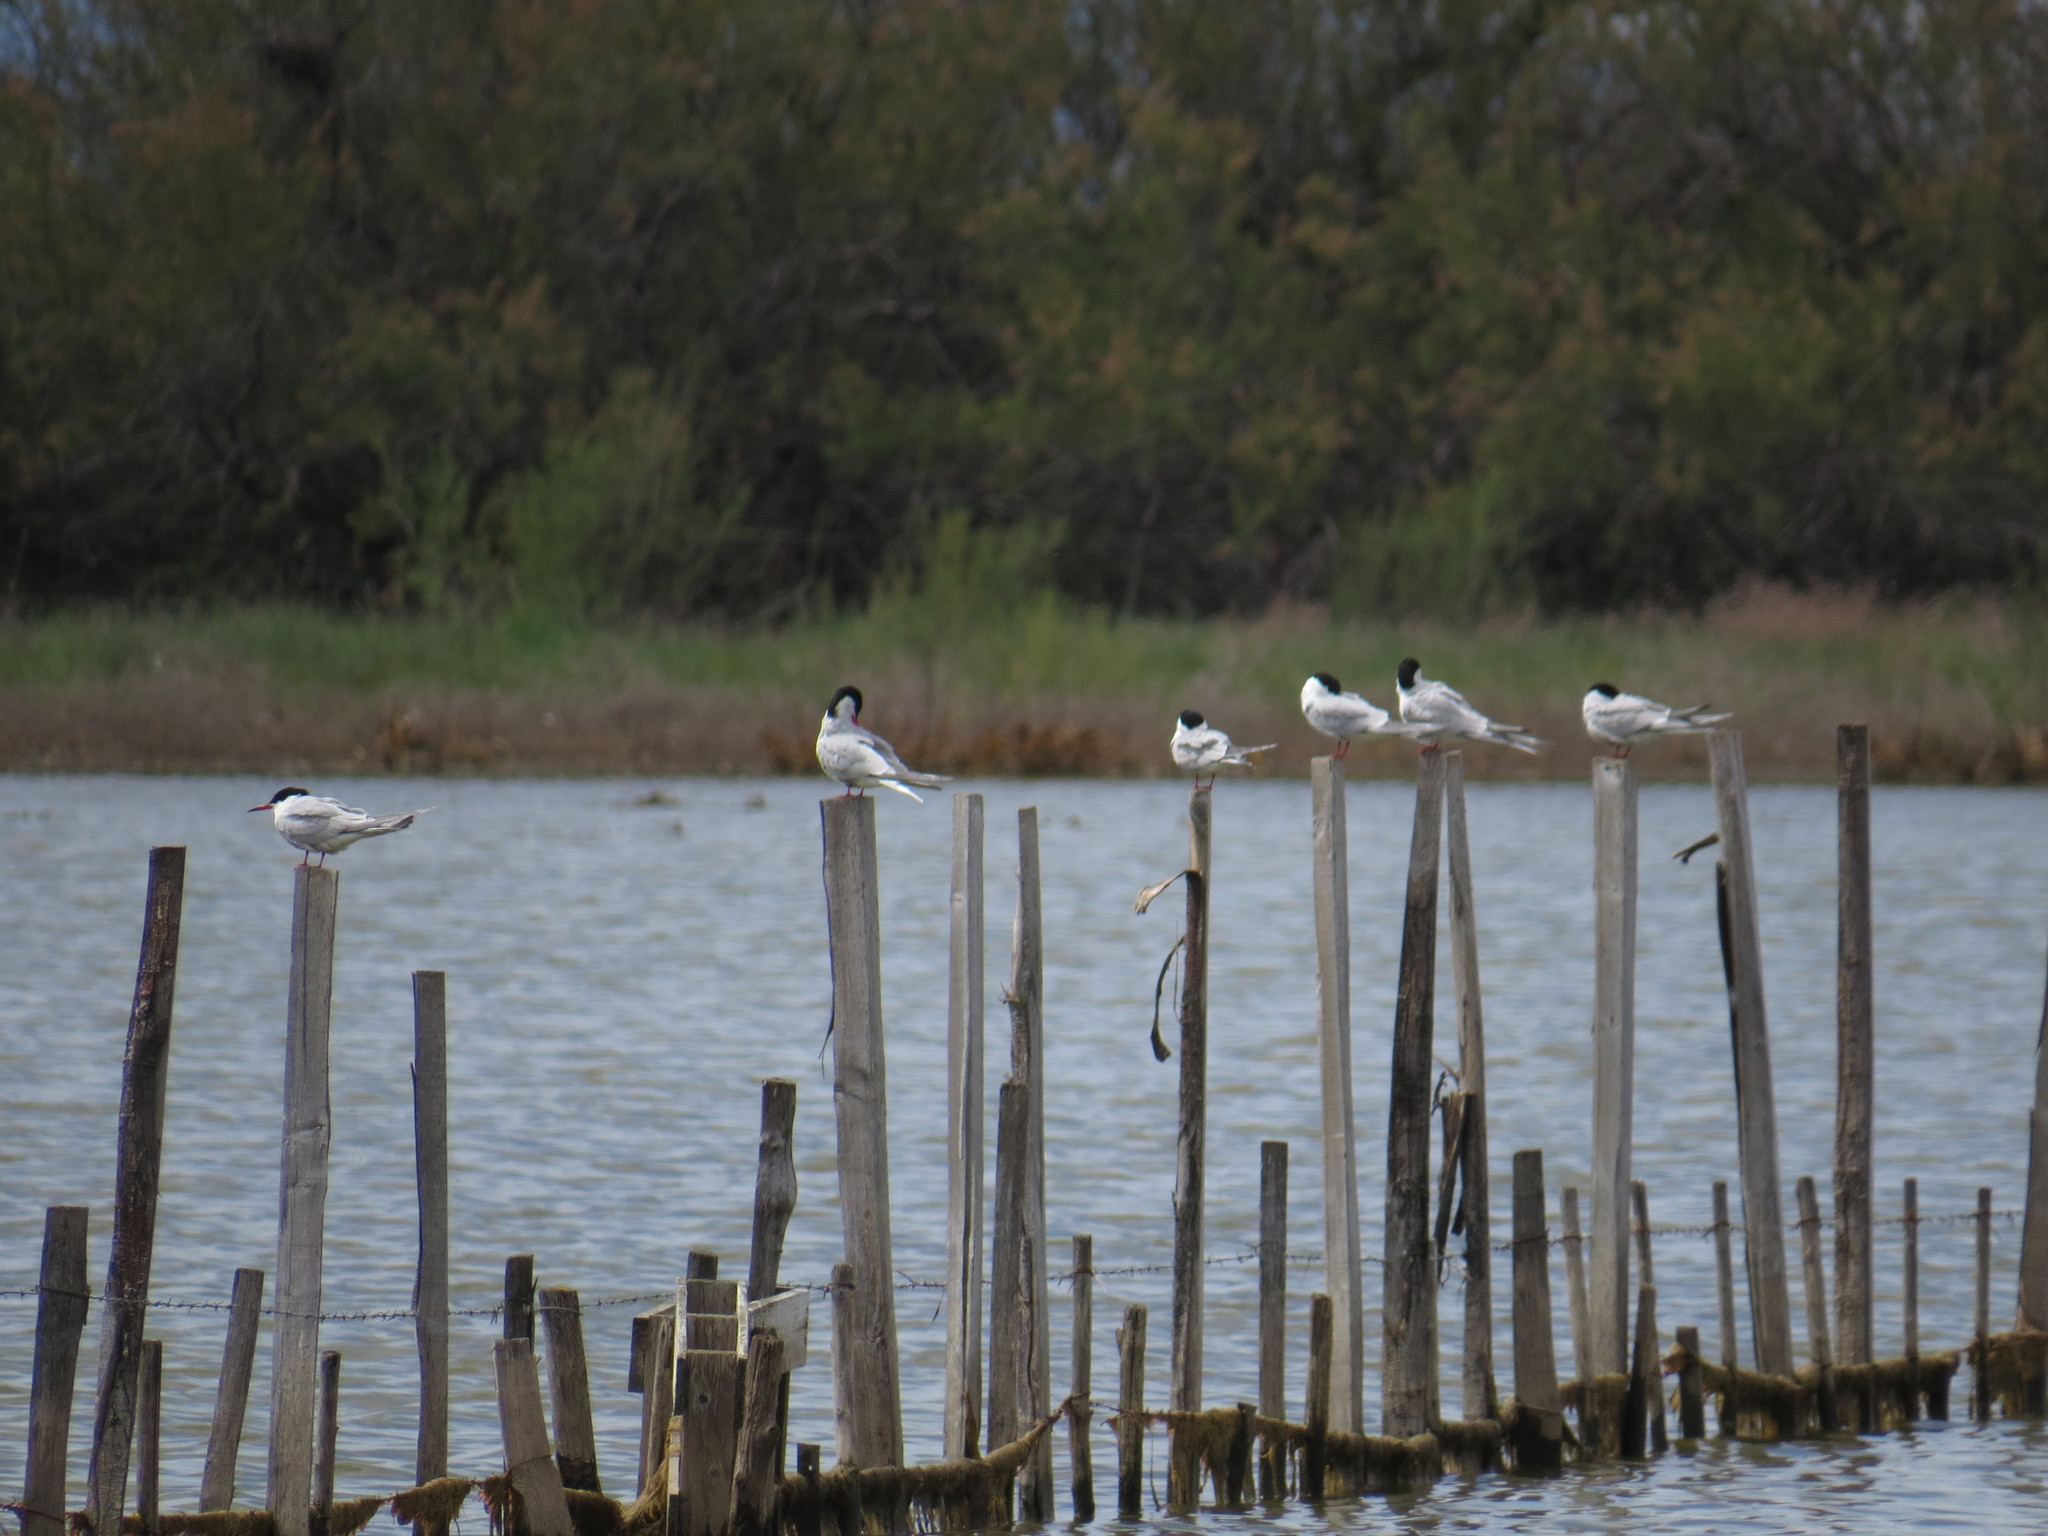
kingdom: Animalia
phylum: Chordata
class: Aves
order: Charadriiformes
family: Laridae
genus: Sterna
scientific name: Sterna hirundo
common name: Common tern
